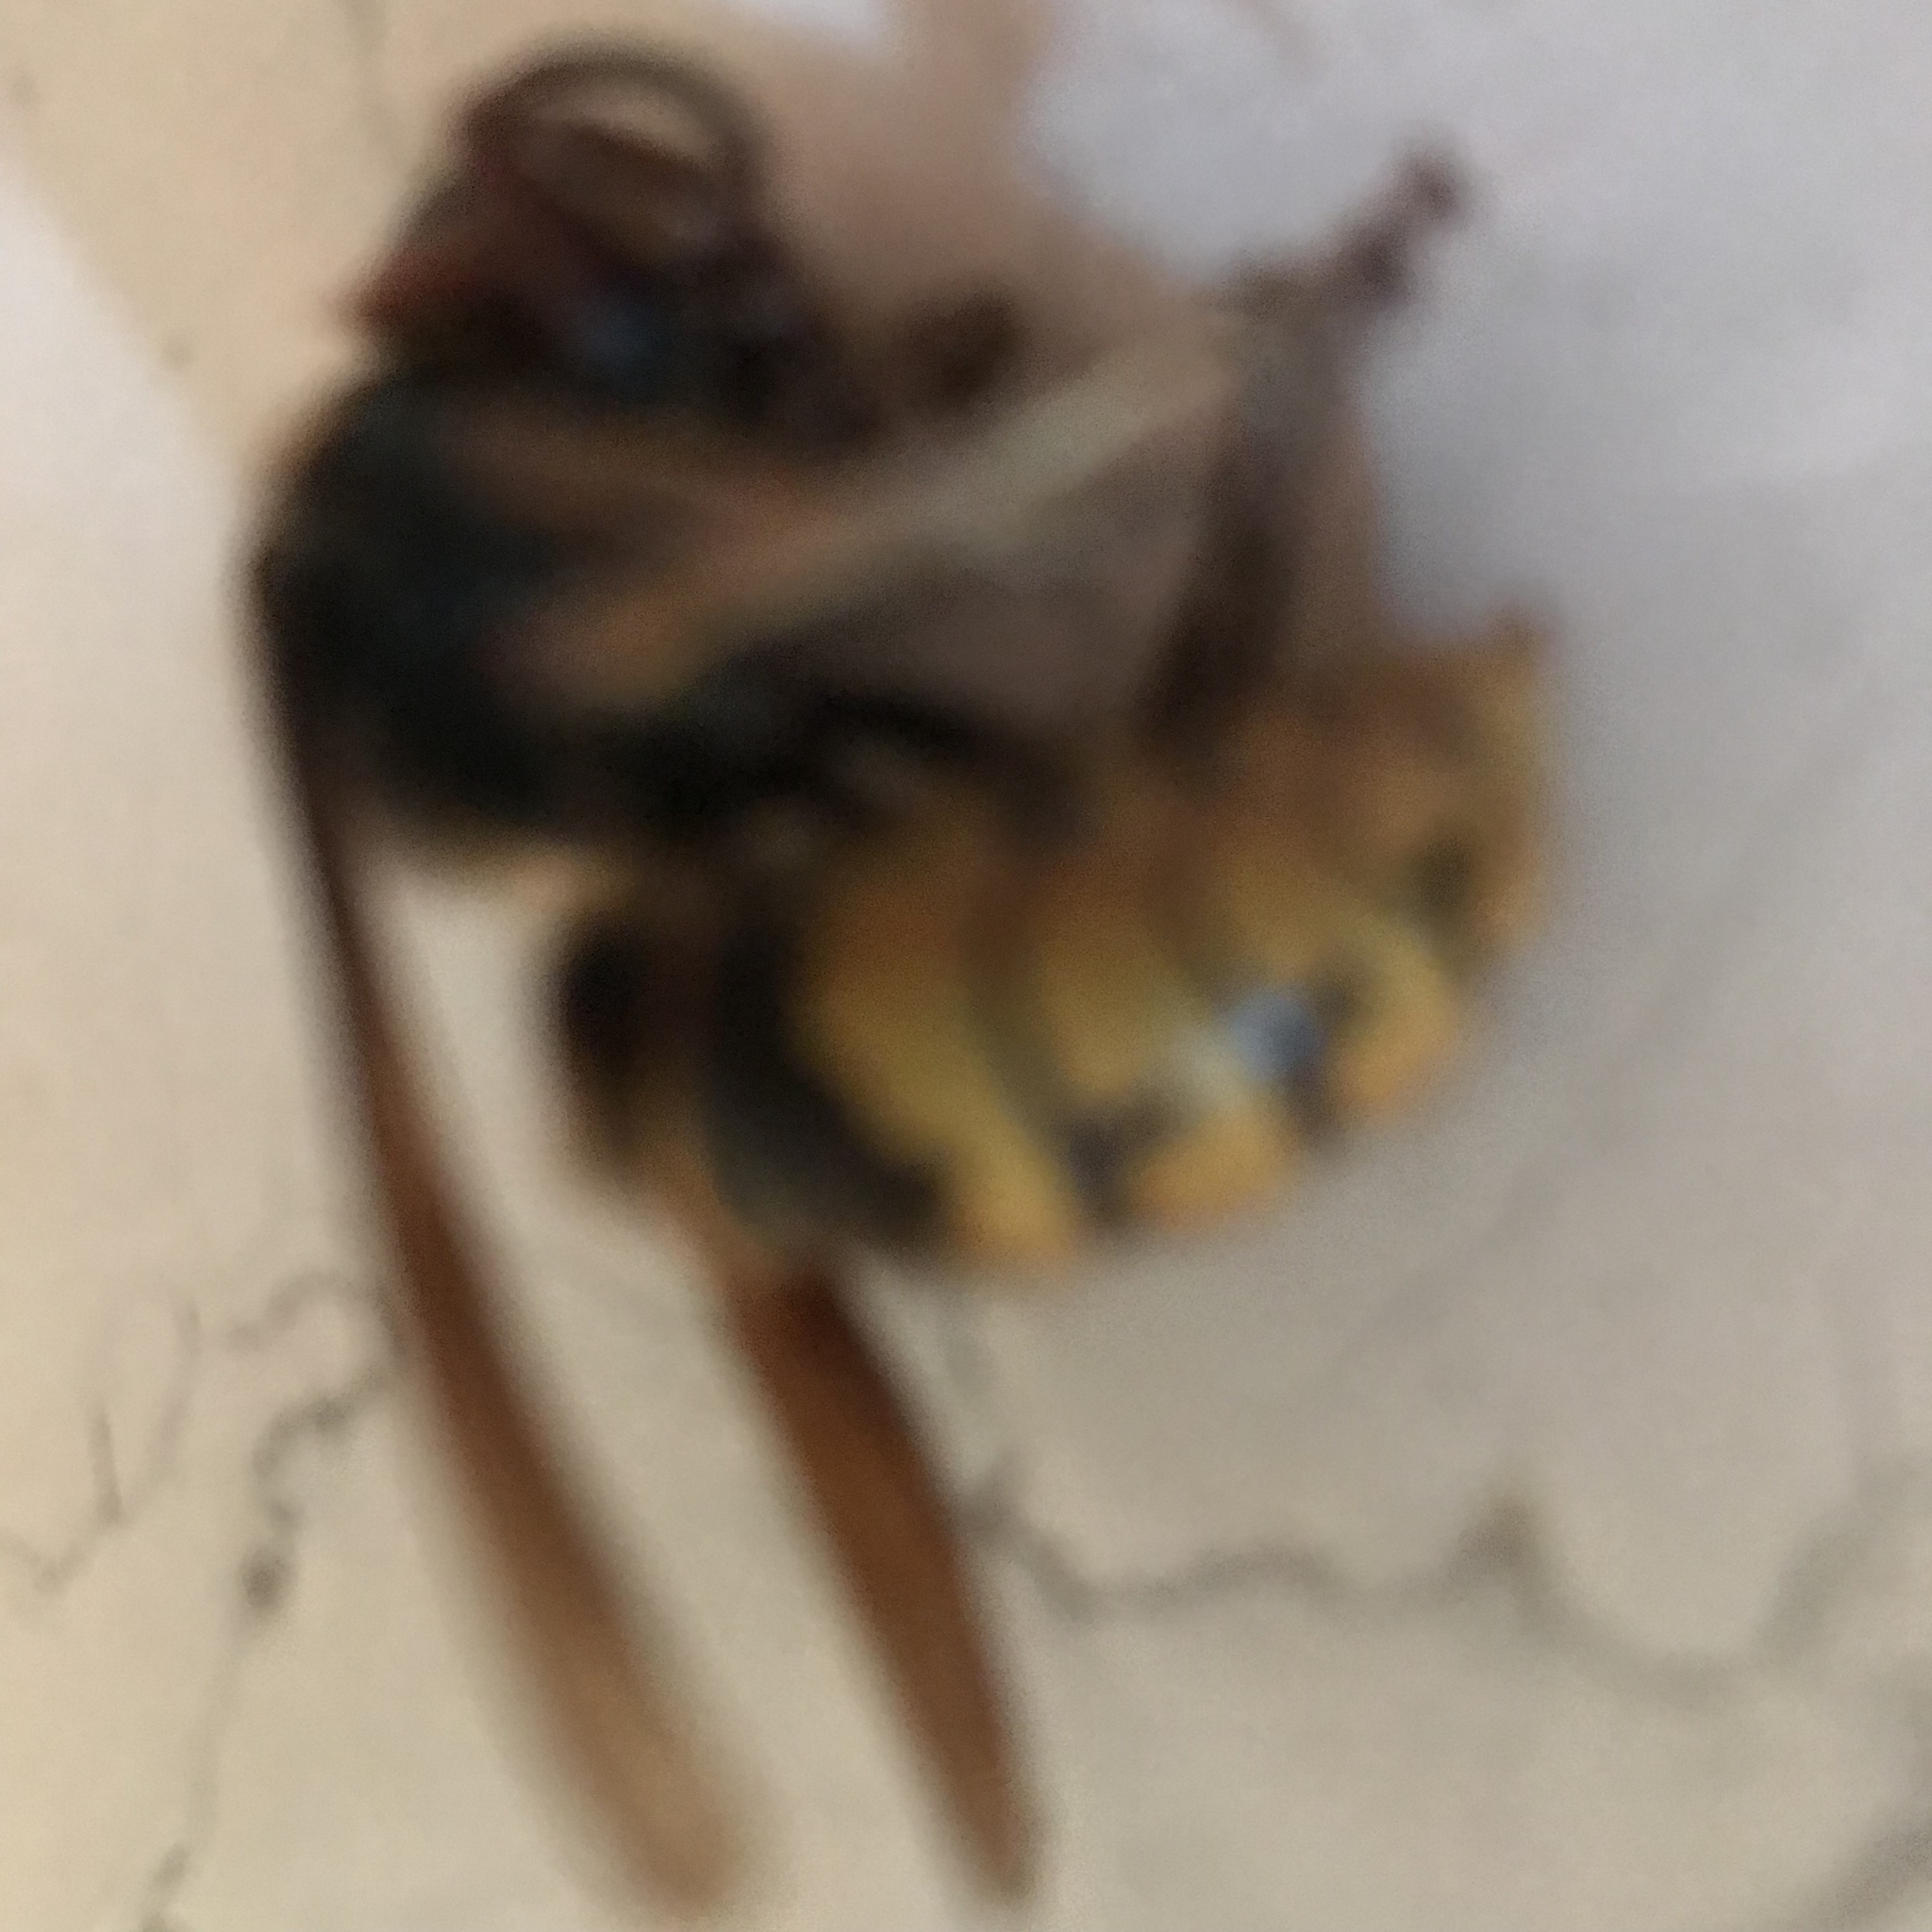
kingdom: Animalia
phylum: Arthropoda
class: Insecta
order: Hymenoptera
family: Vespidae
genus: Vespa
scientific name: Vespa crabro
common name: Hornet
